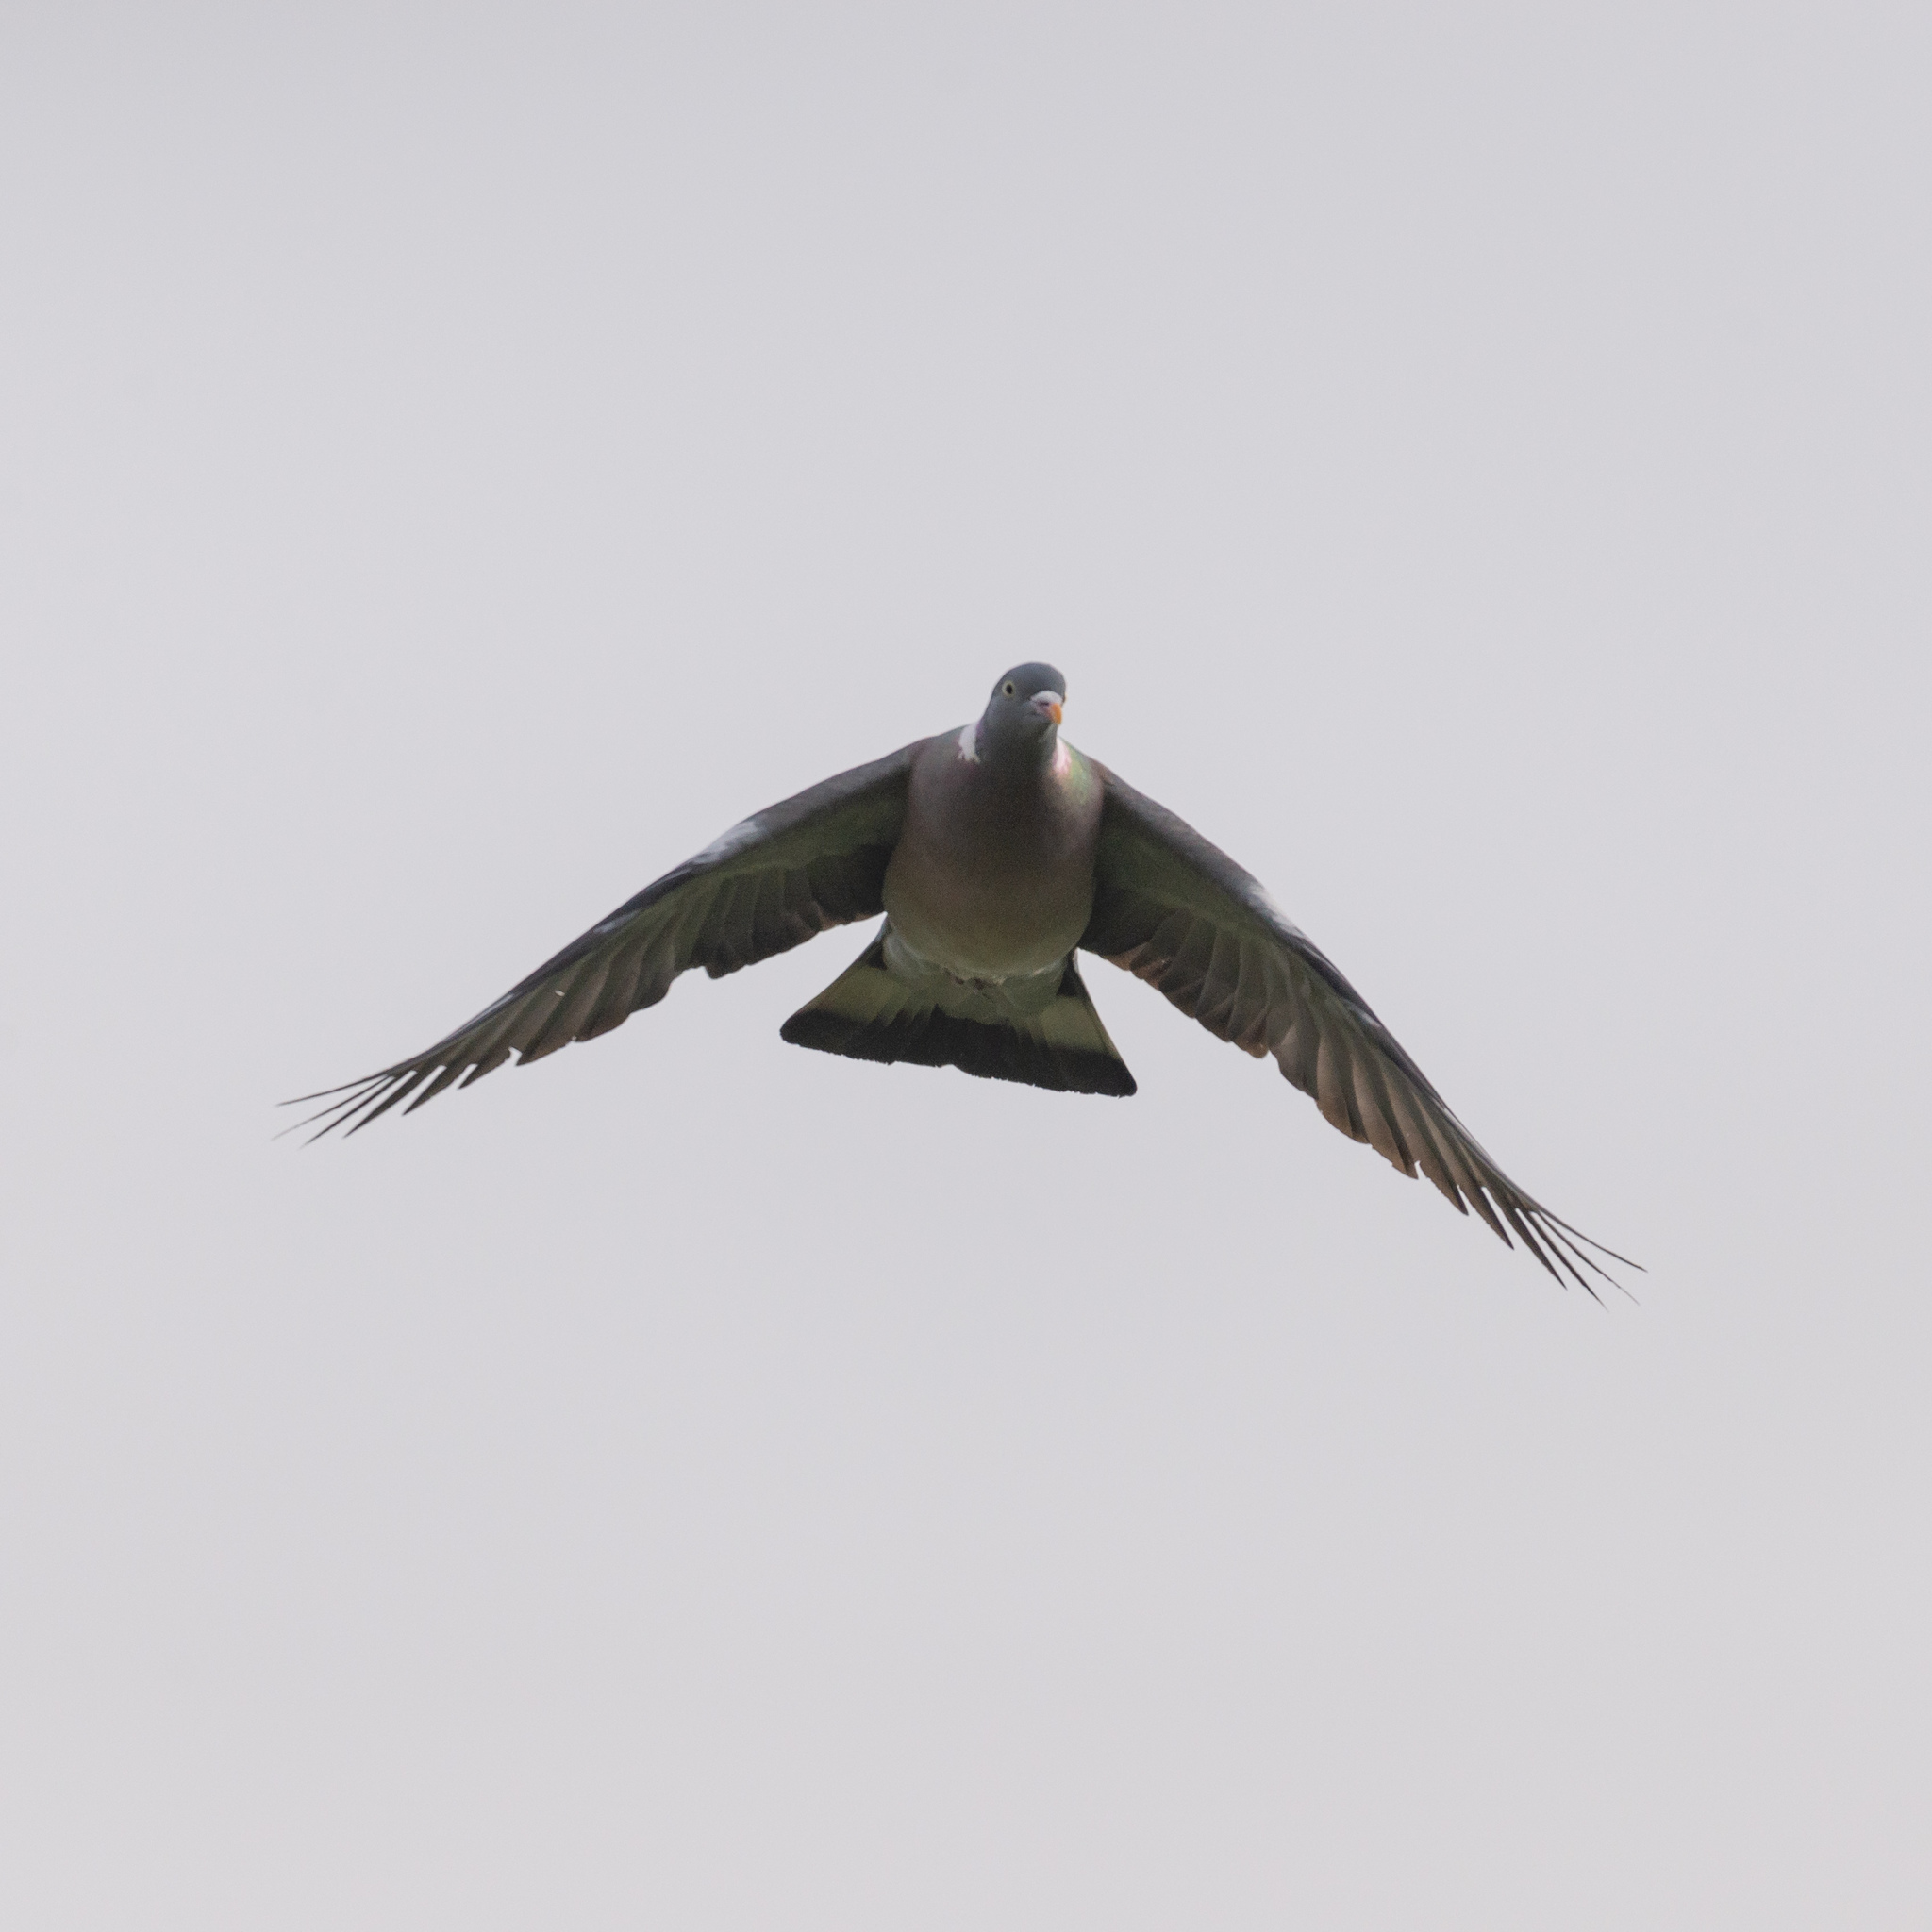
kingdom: Animalia
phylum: Chordata
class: Aves
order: Columbiformes
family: Columbidae
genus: Columba
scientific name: Columba palumbus
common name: Common wood pigeon
